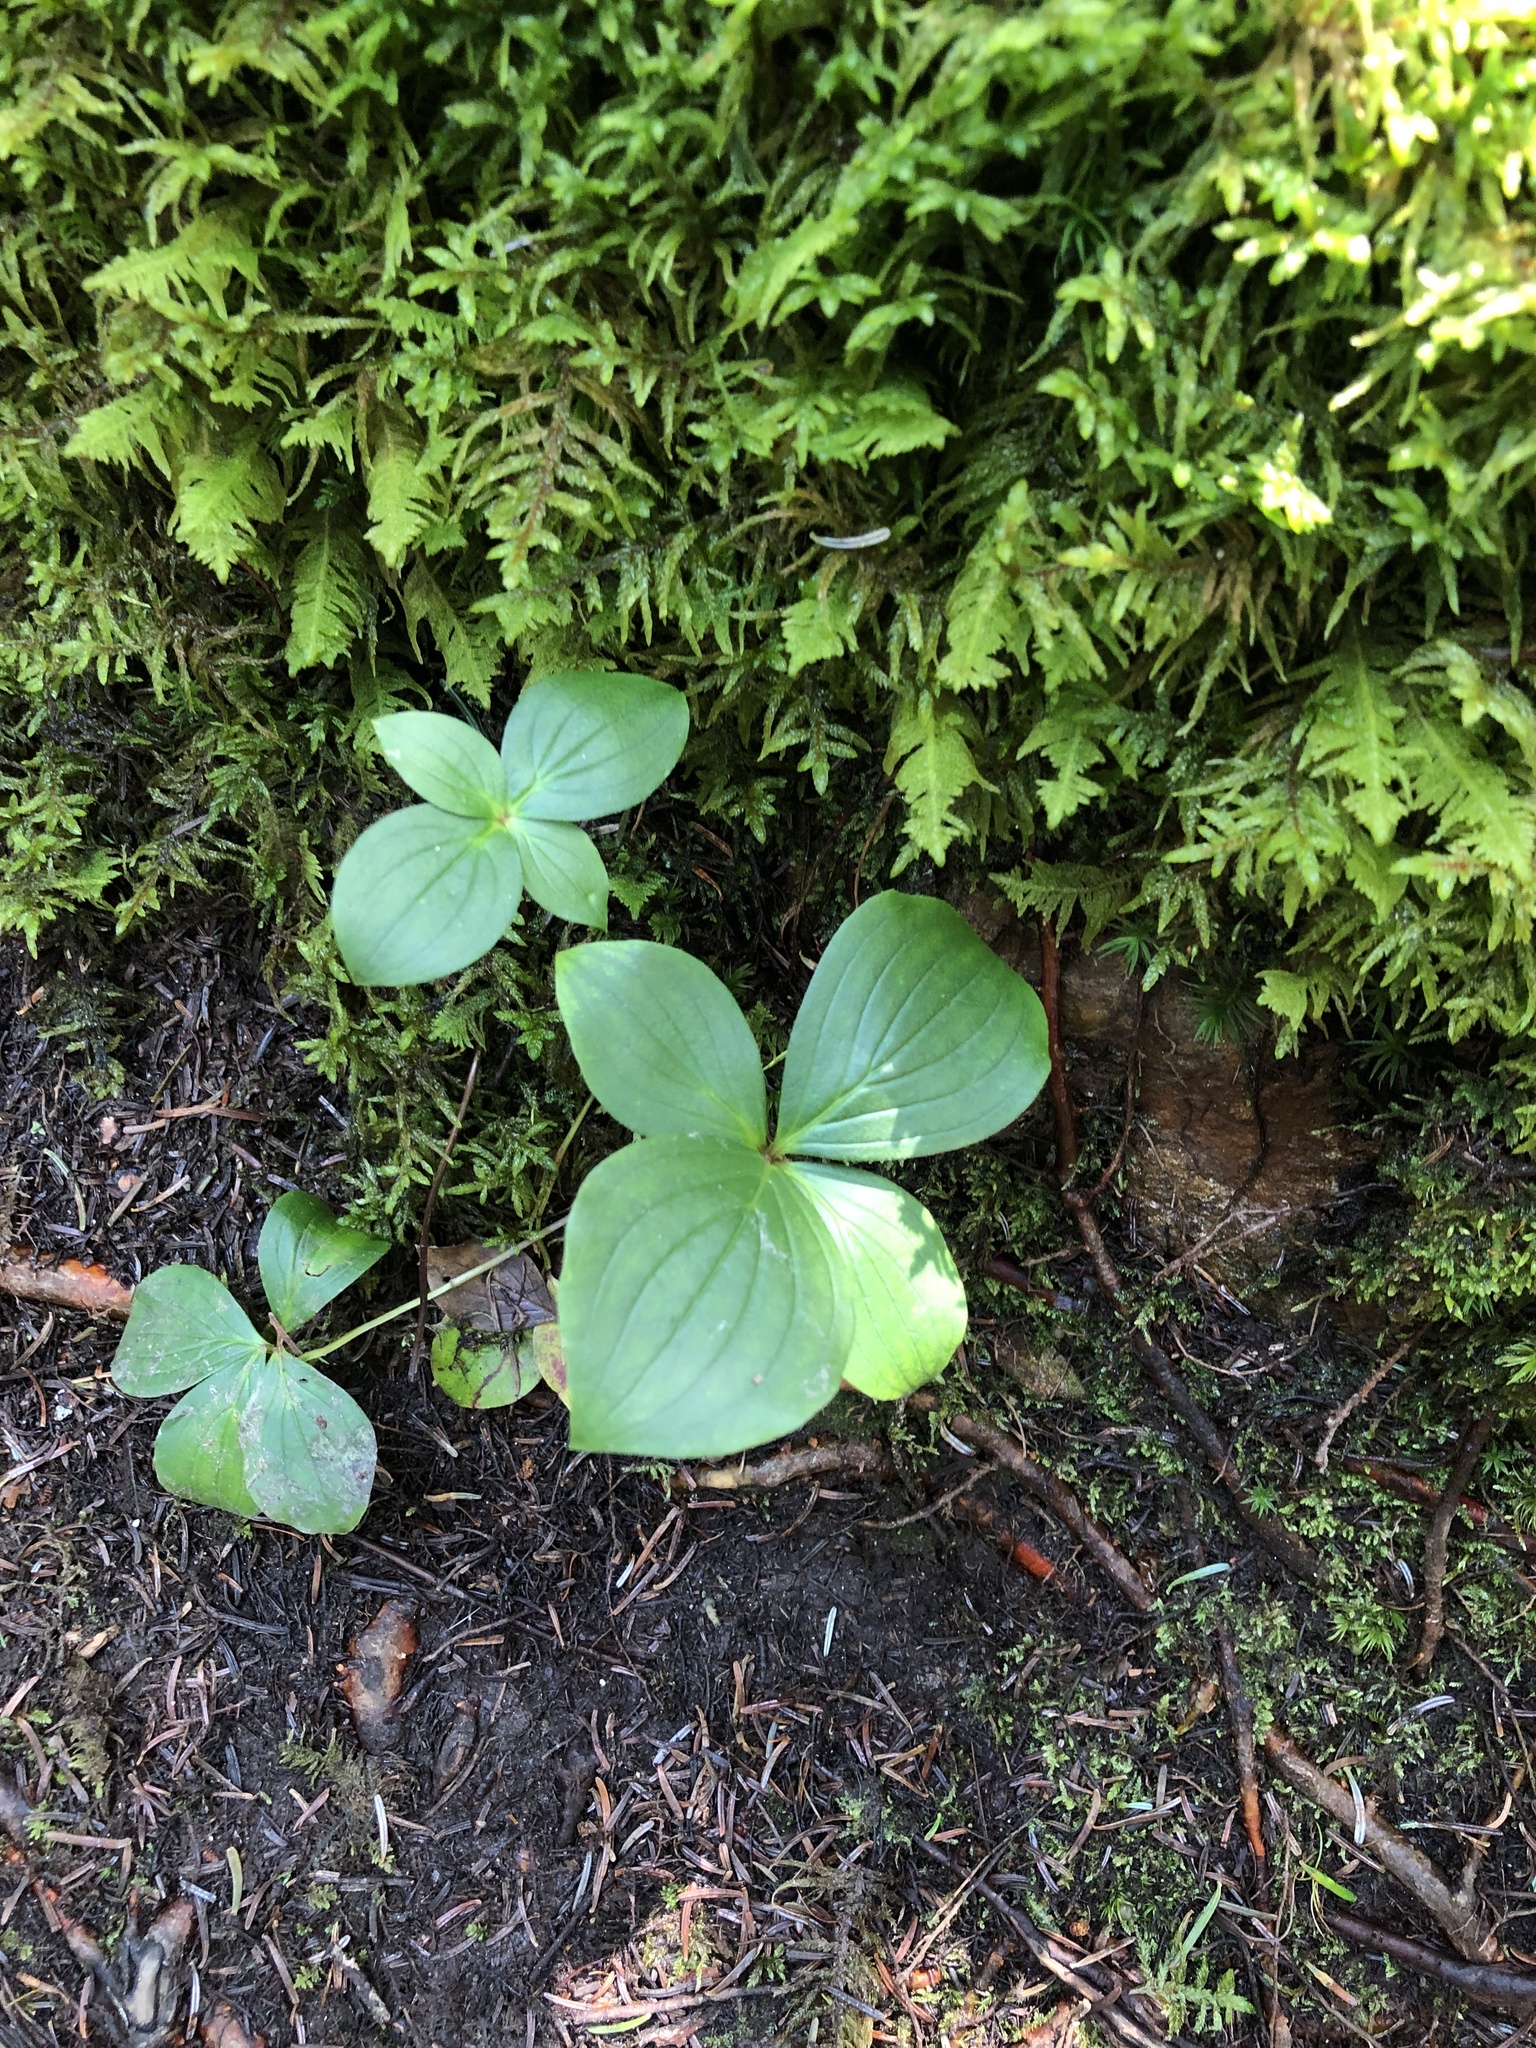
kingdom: Plantae
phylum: Tracheophyta
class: Magnoliopsida
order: Cornales
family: Cornaceae
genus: Cornus
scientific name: Cornus canadensis
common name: Creeping dogwood
